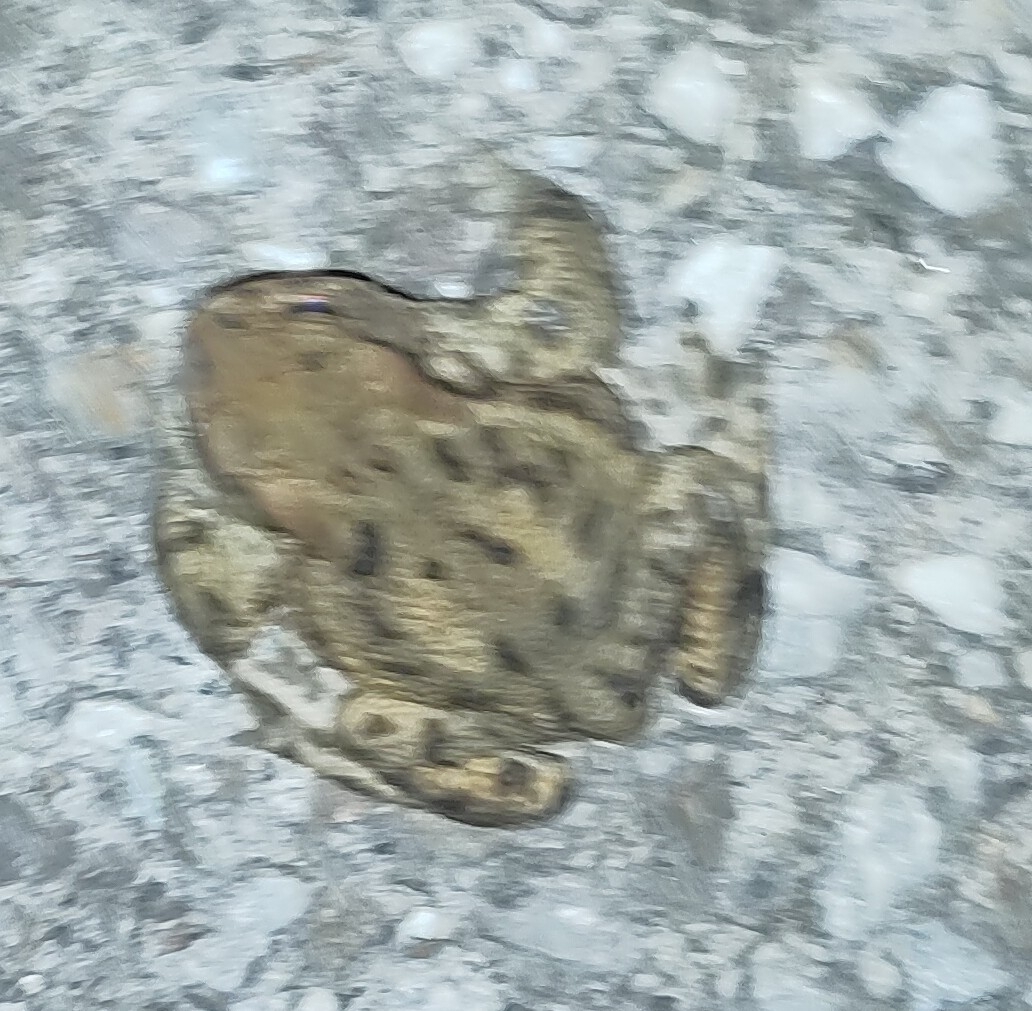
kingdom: Animalia
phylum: Chordata
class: Amphibia
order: Anura
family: Bufonidae
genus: Bufo
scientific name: Bufo bufo
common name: Common toad
